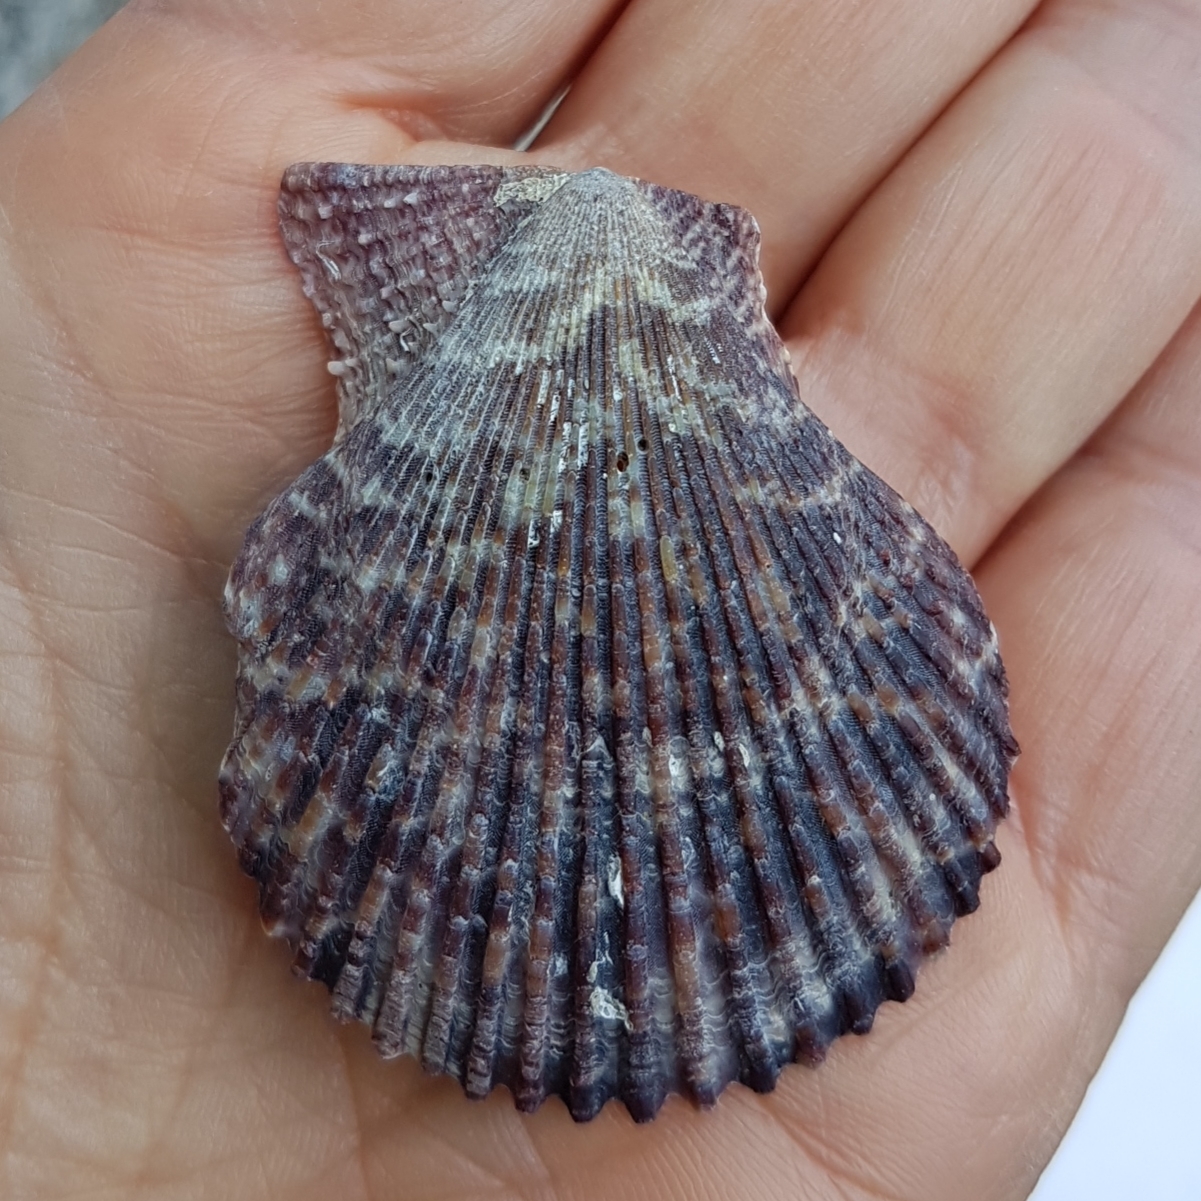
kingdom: Animalia
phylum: Mollusca
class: Bivalvia
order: Pectinida
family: Pectinidae
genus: Mimachlamys
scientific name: Mimachlamys varia
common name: Variegated scallop
